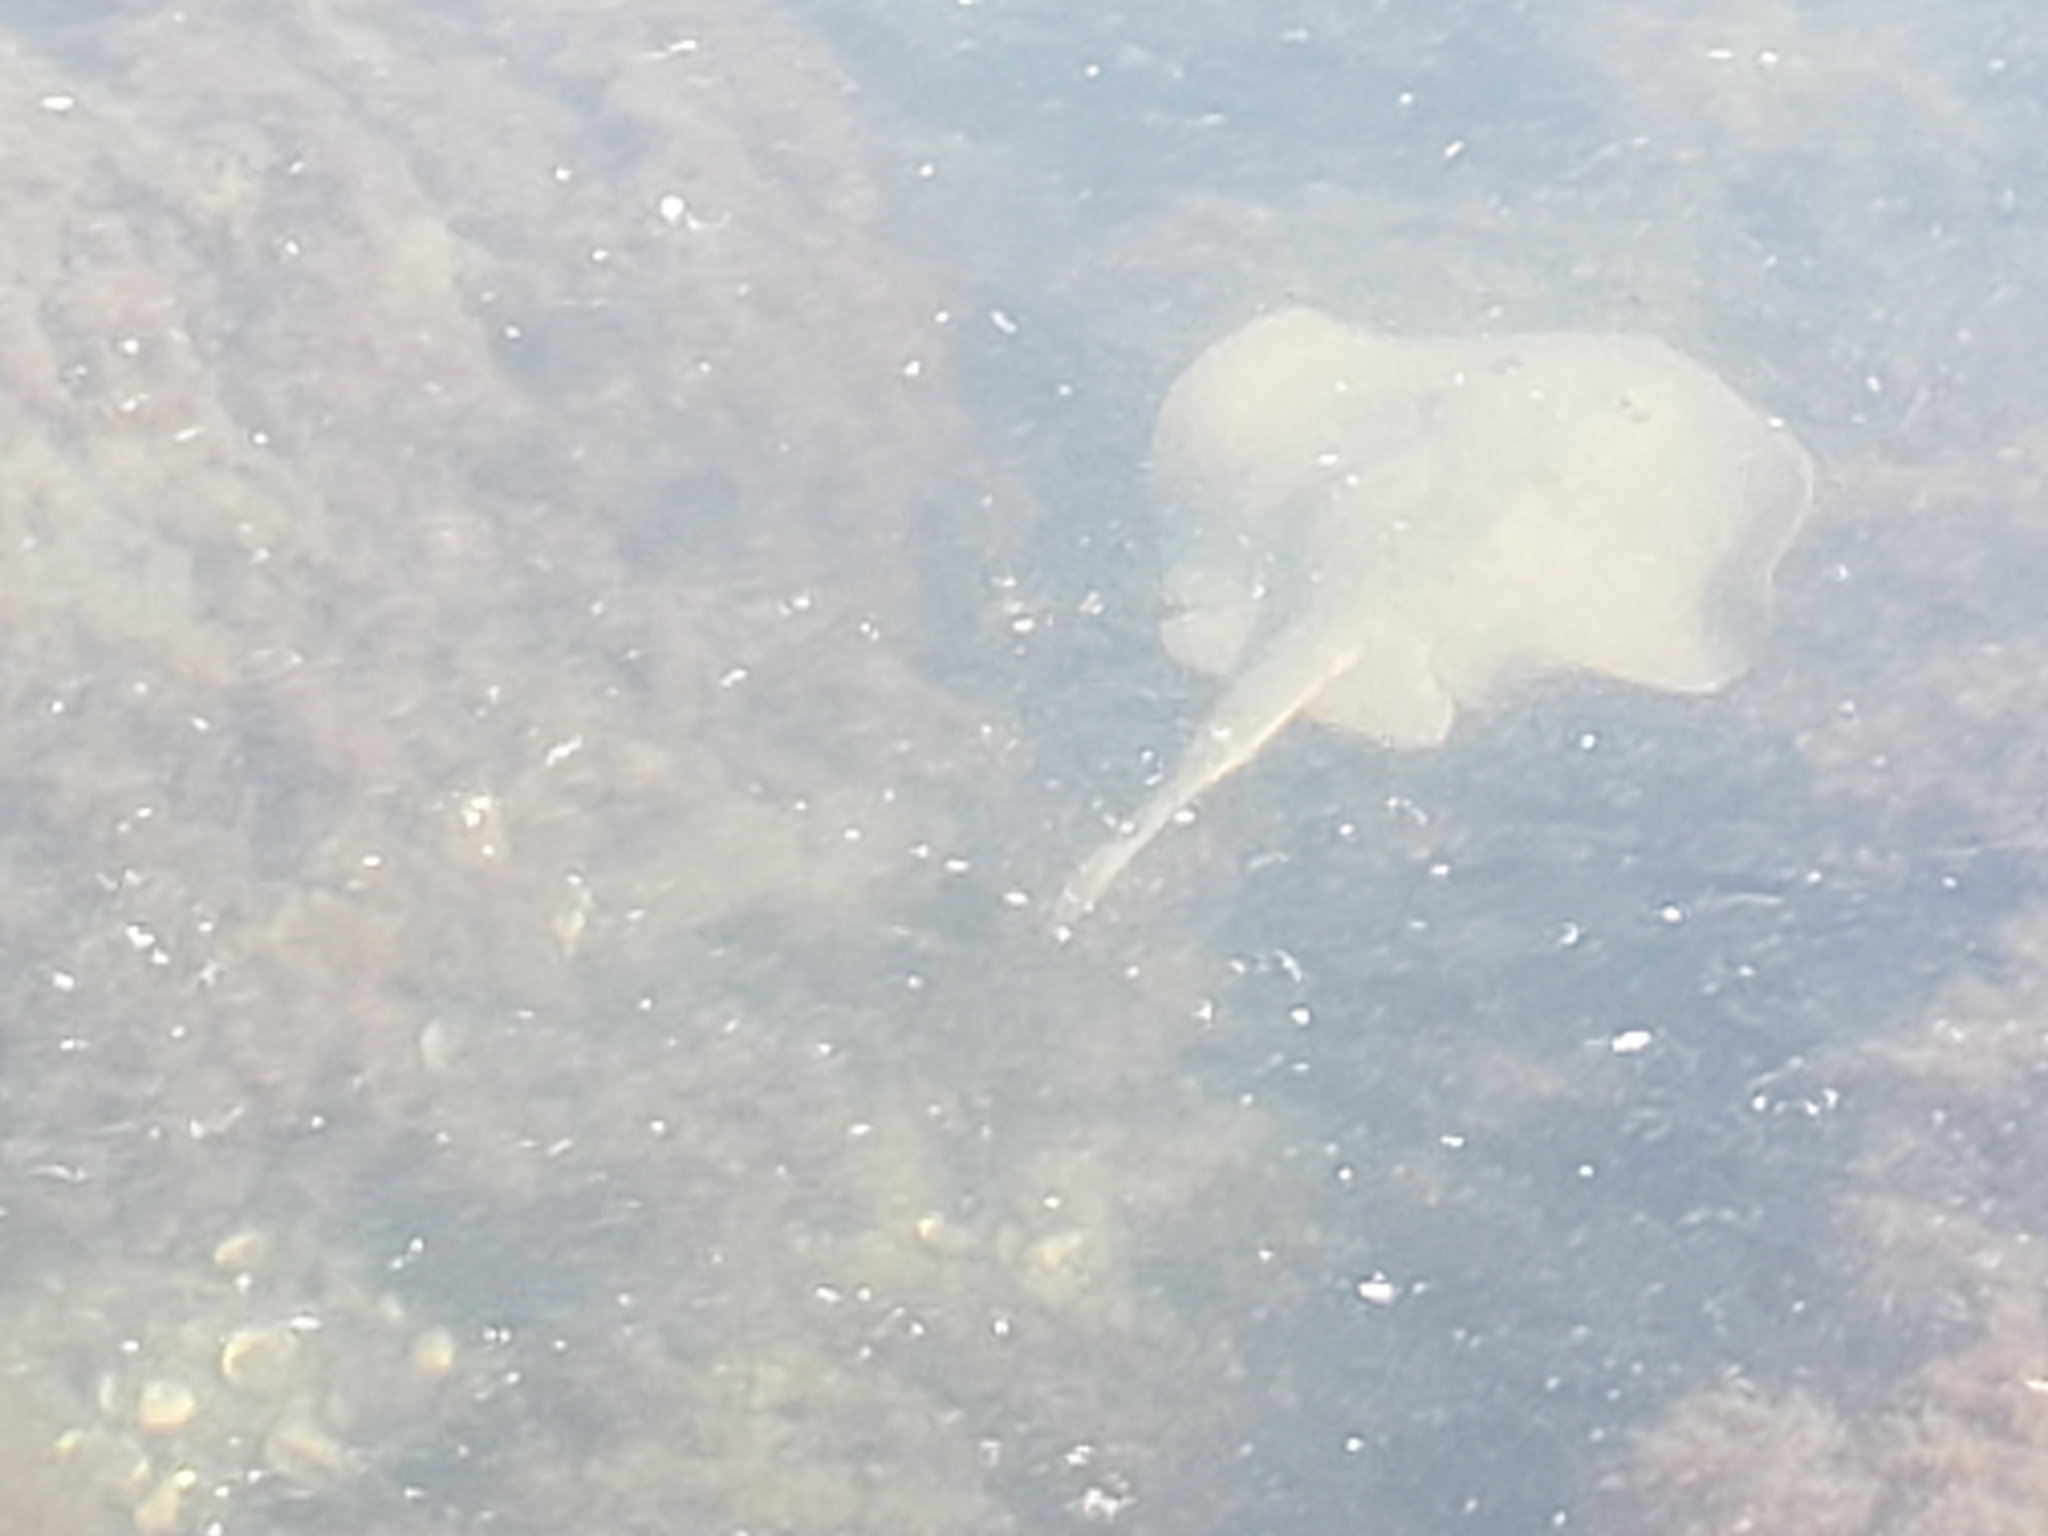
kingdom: Animalia
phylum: Chordata
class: Elasmobranchii
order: Myliobatiformes
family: Urolophidae
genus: Urolophus
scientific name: Urolophus halleri
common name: Round stingray
